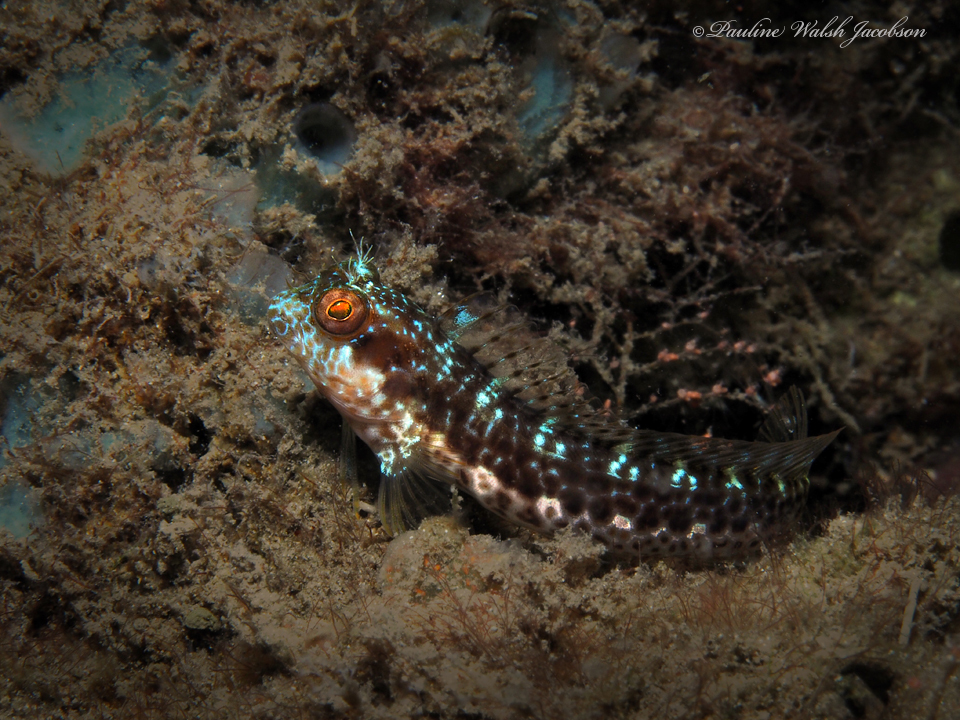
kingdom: Animalia
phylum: Chordata
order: Perciformes
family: Blenniidae
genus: Parablennius
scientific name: Parablennius marmoreus
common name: Seaweed blenny
